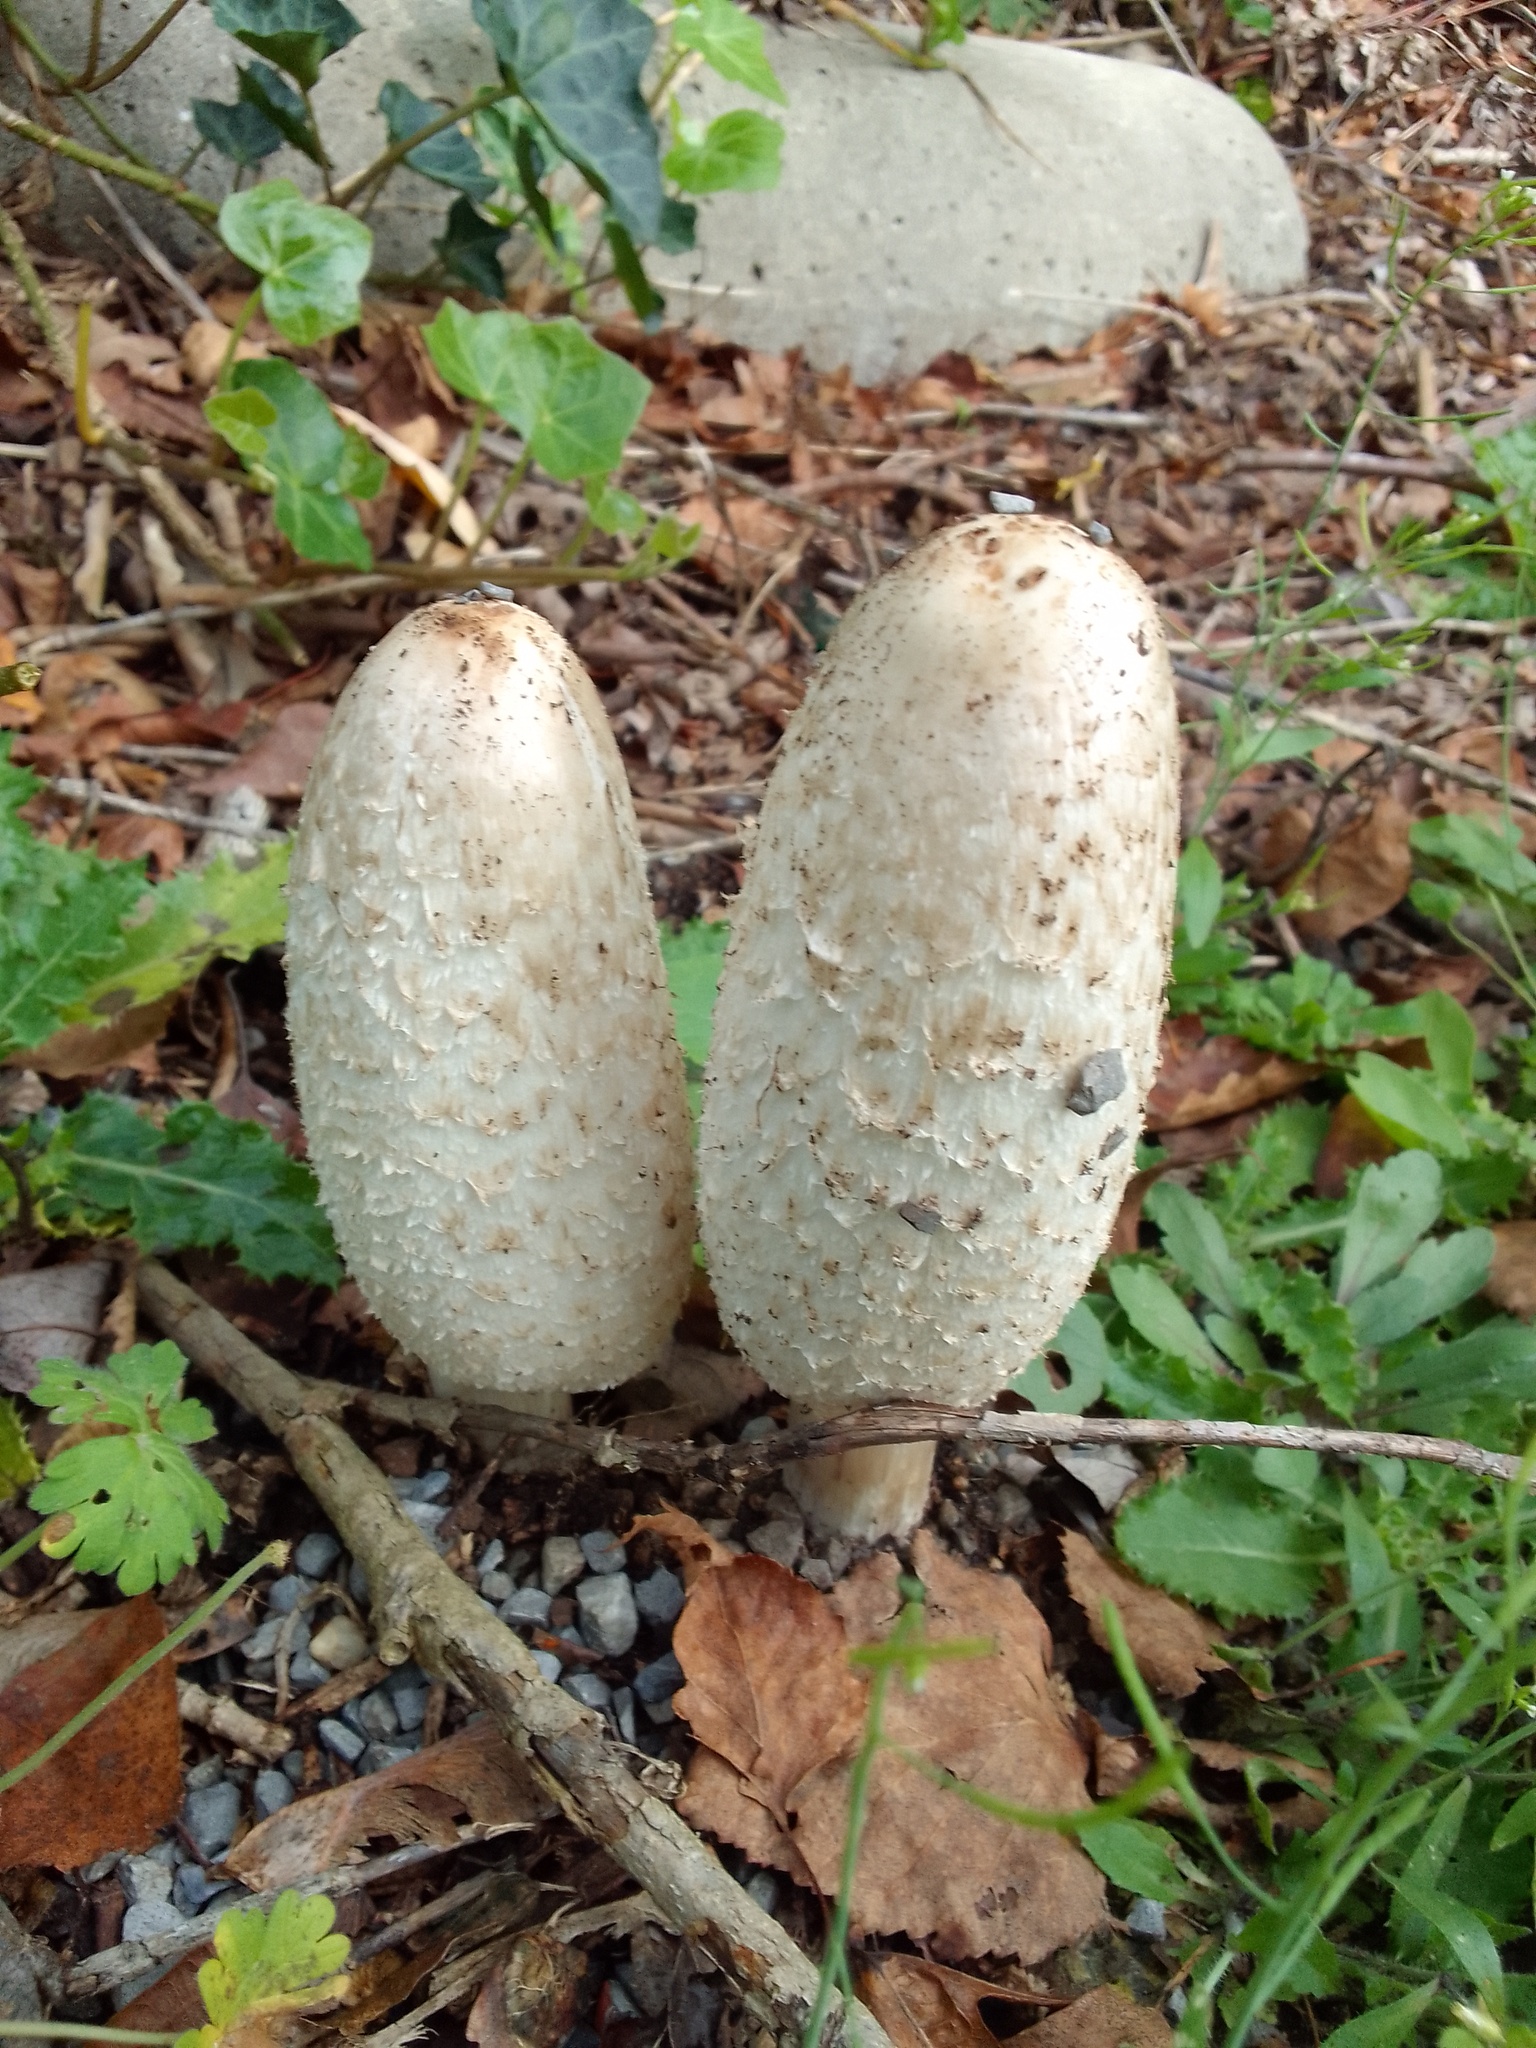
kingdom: Fungi
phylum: Basidiomycota
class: Agaricomycetes
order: Agaricales
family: Agaricaceae
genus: Coprinus
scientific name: Coprinus comatus
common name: Lawyer's wig
